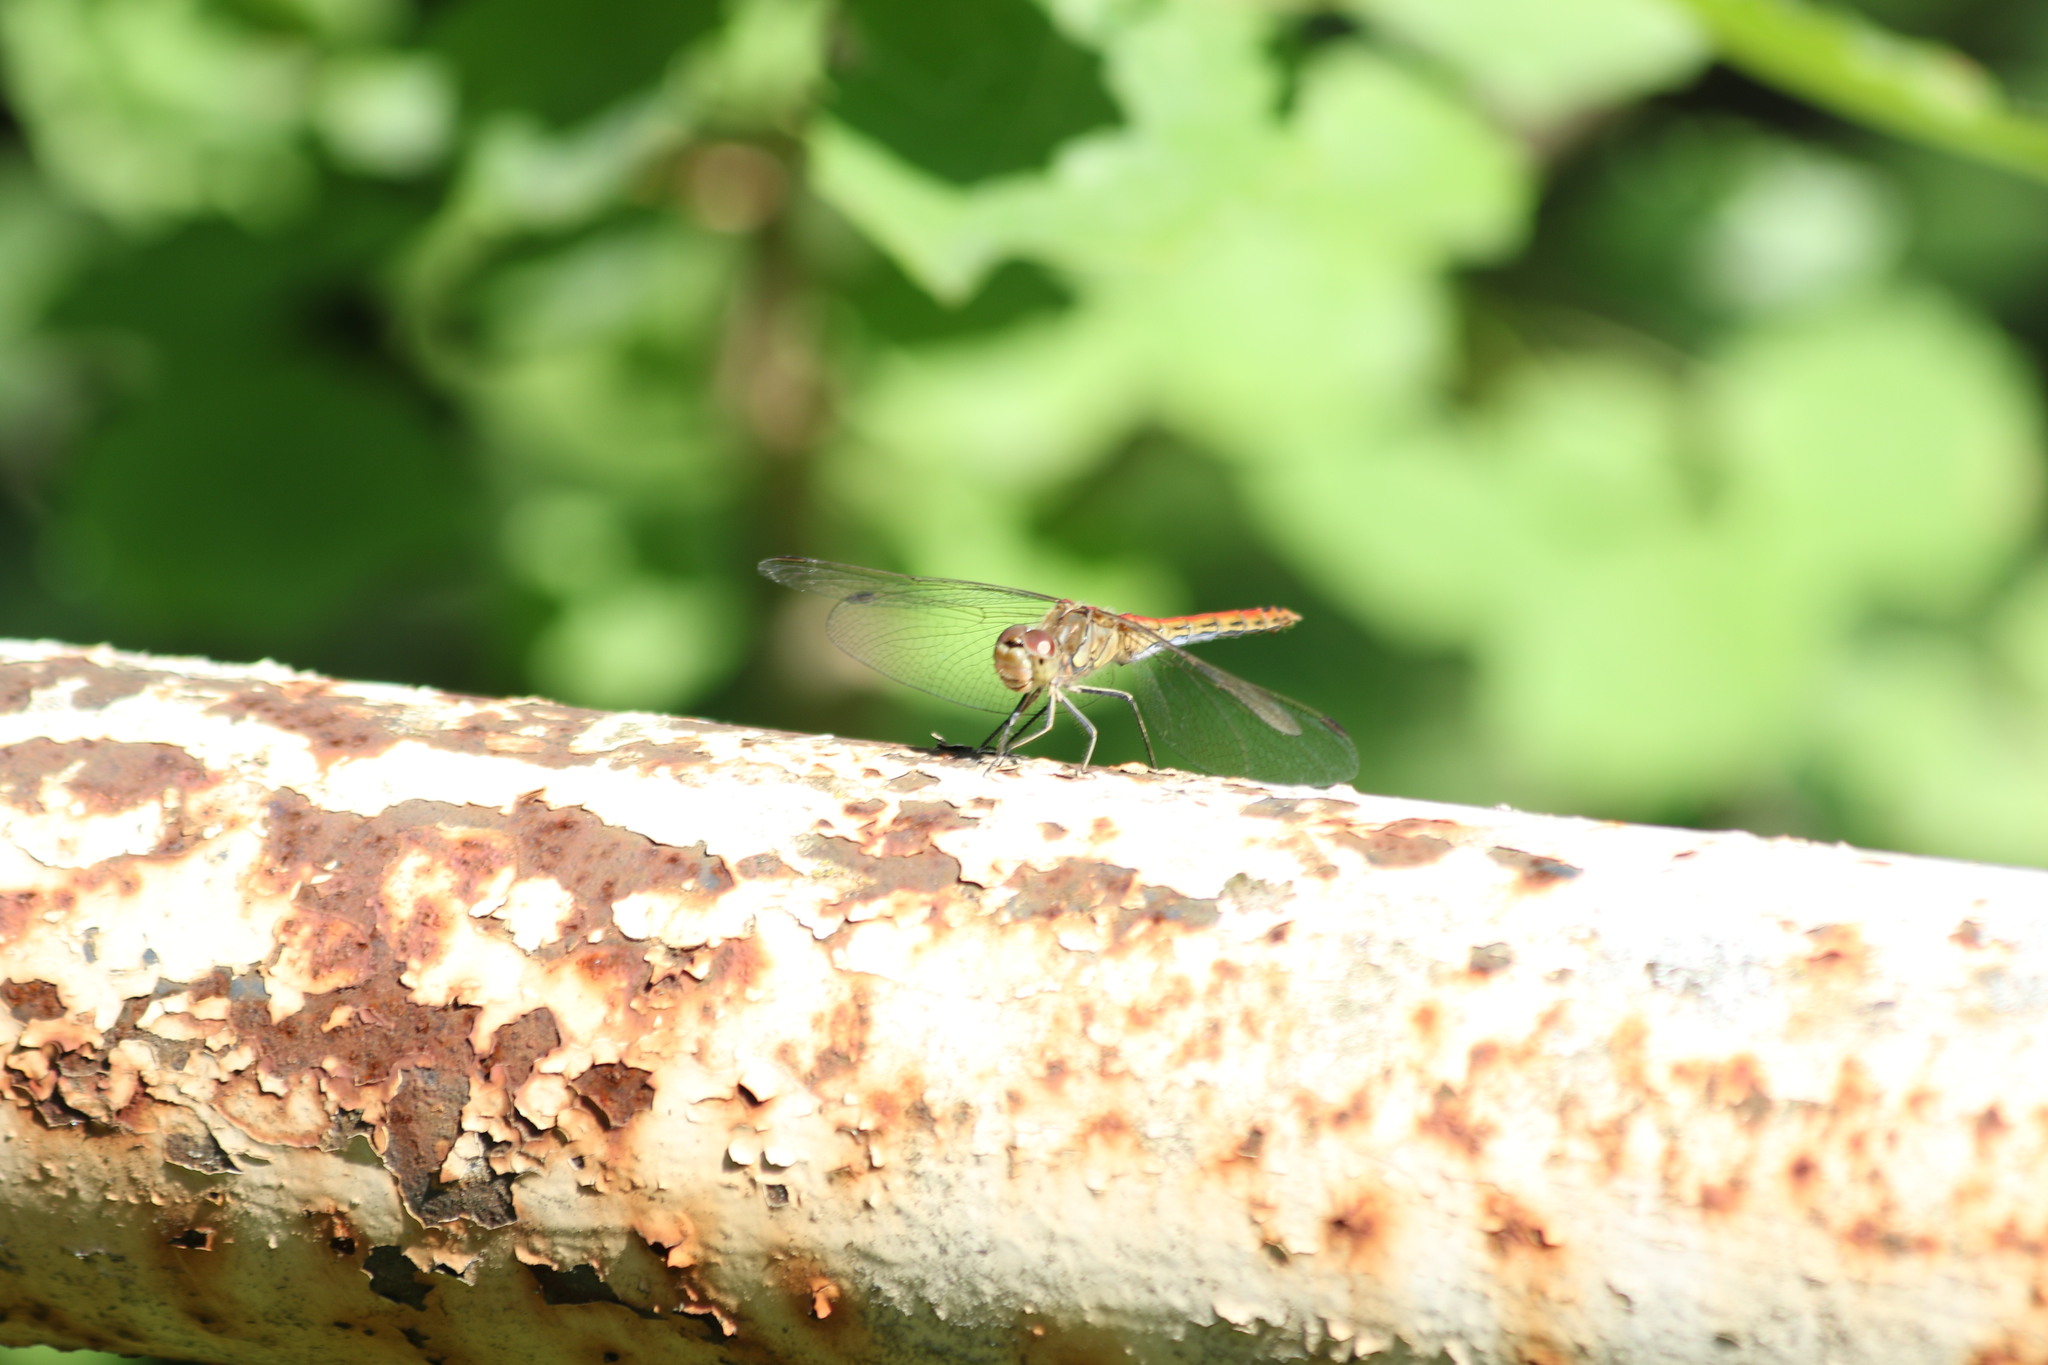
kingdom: Animalia
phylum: Arthropoda
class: Insecta
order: Odonata
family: Libellulidae
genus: Sympetrum
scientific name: Sympetrum vulgatum
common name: Vagrant darter
